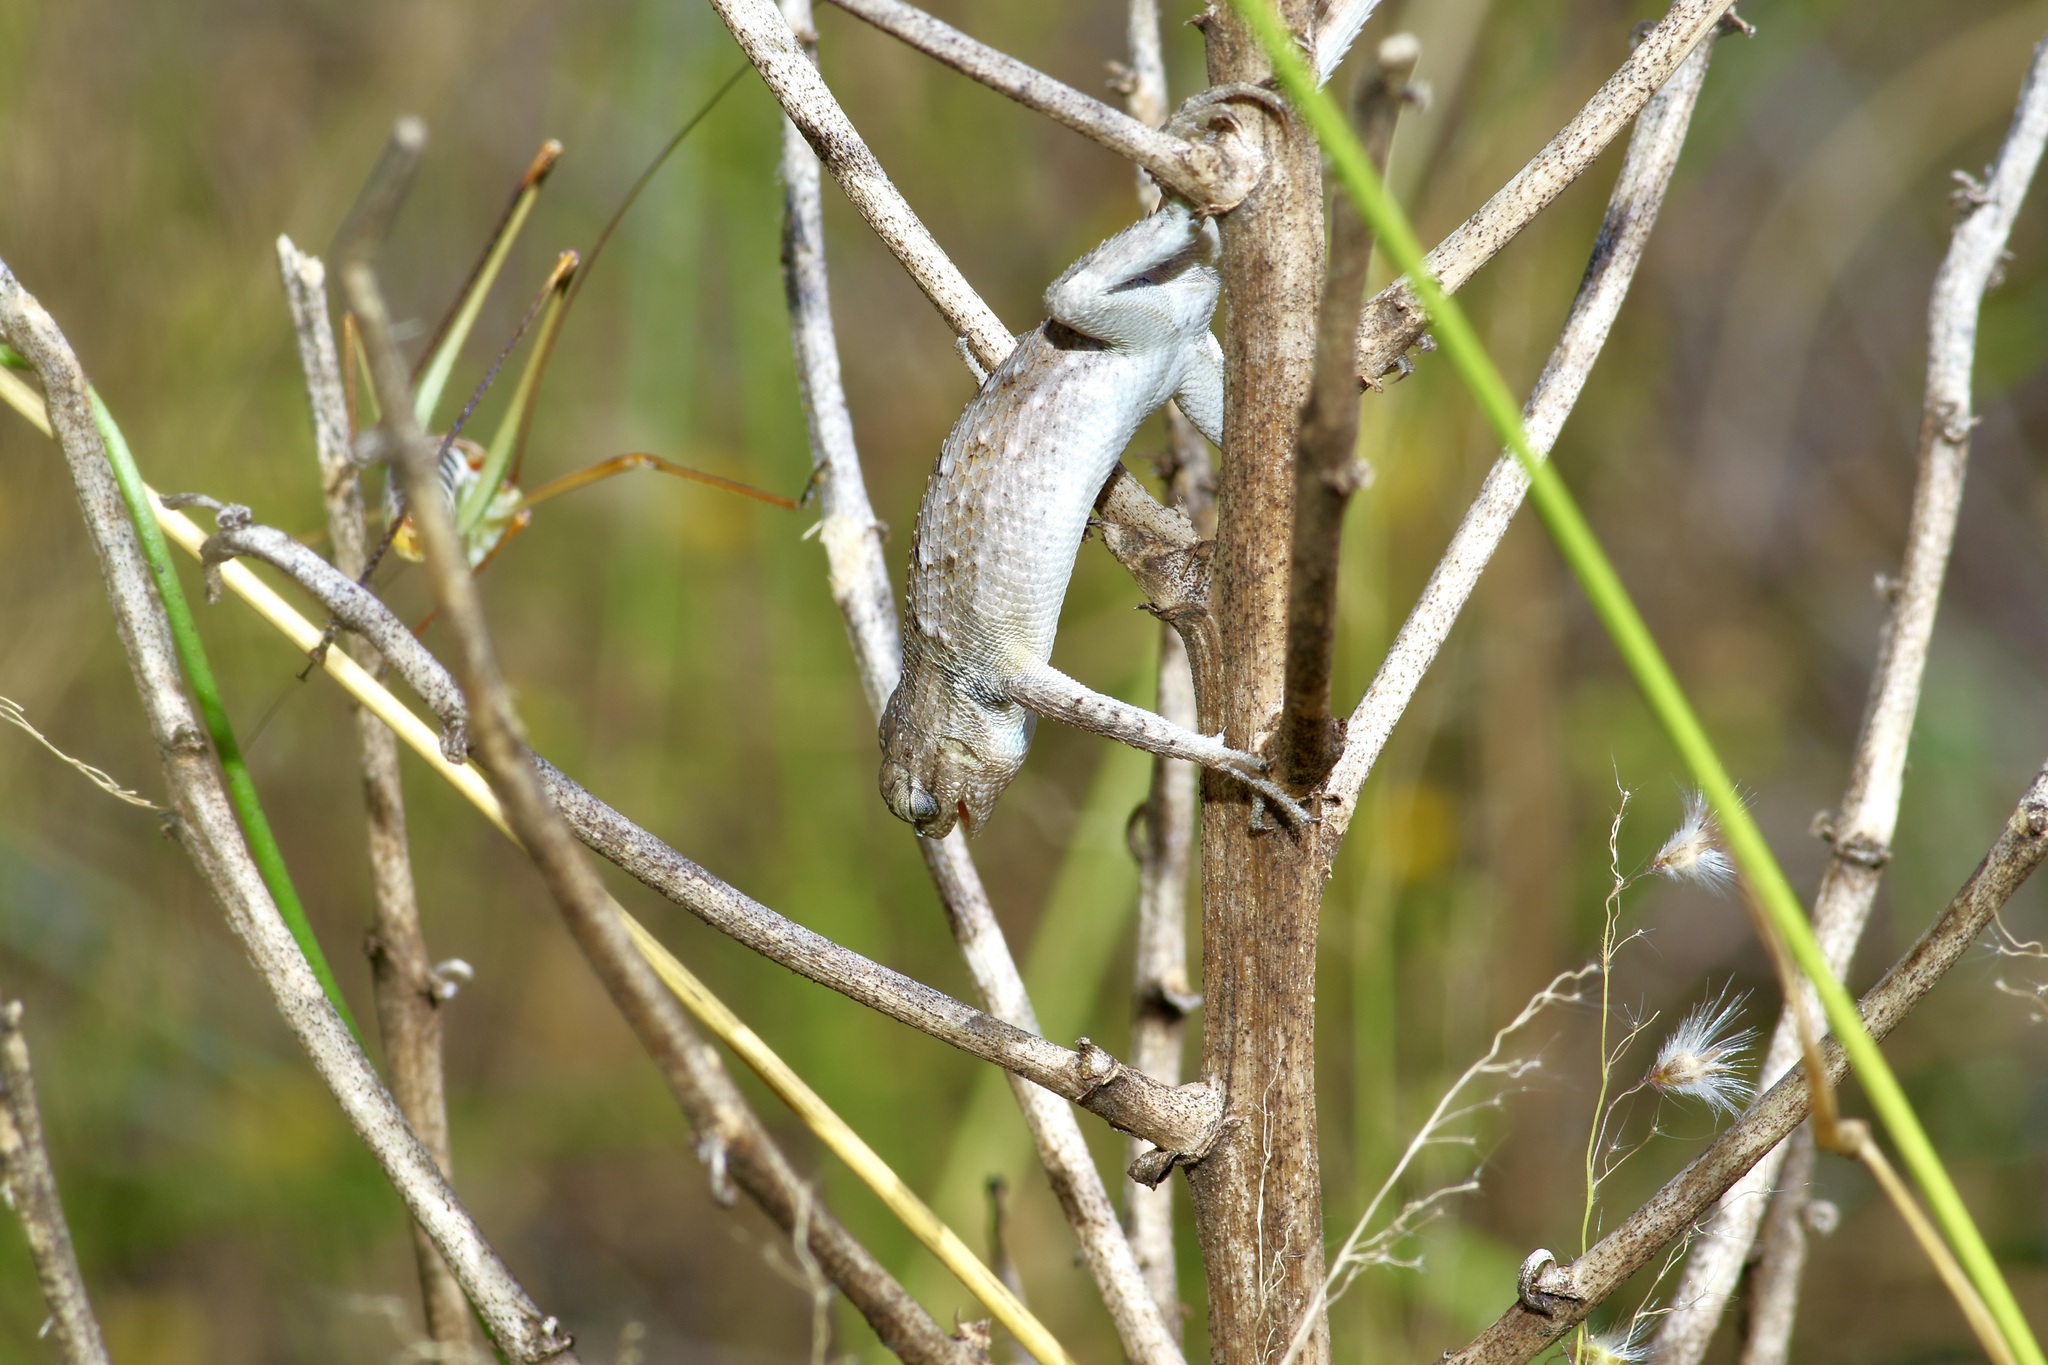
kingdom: Animalia
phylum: Chordata
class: Squamata
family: Phrynosomatidae
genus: Sceloporus
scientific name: Sceloporus consobrinus
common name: Southern prairie lizard
